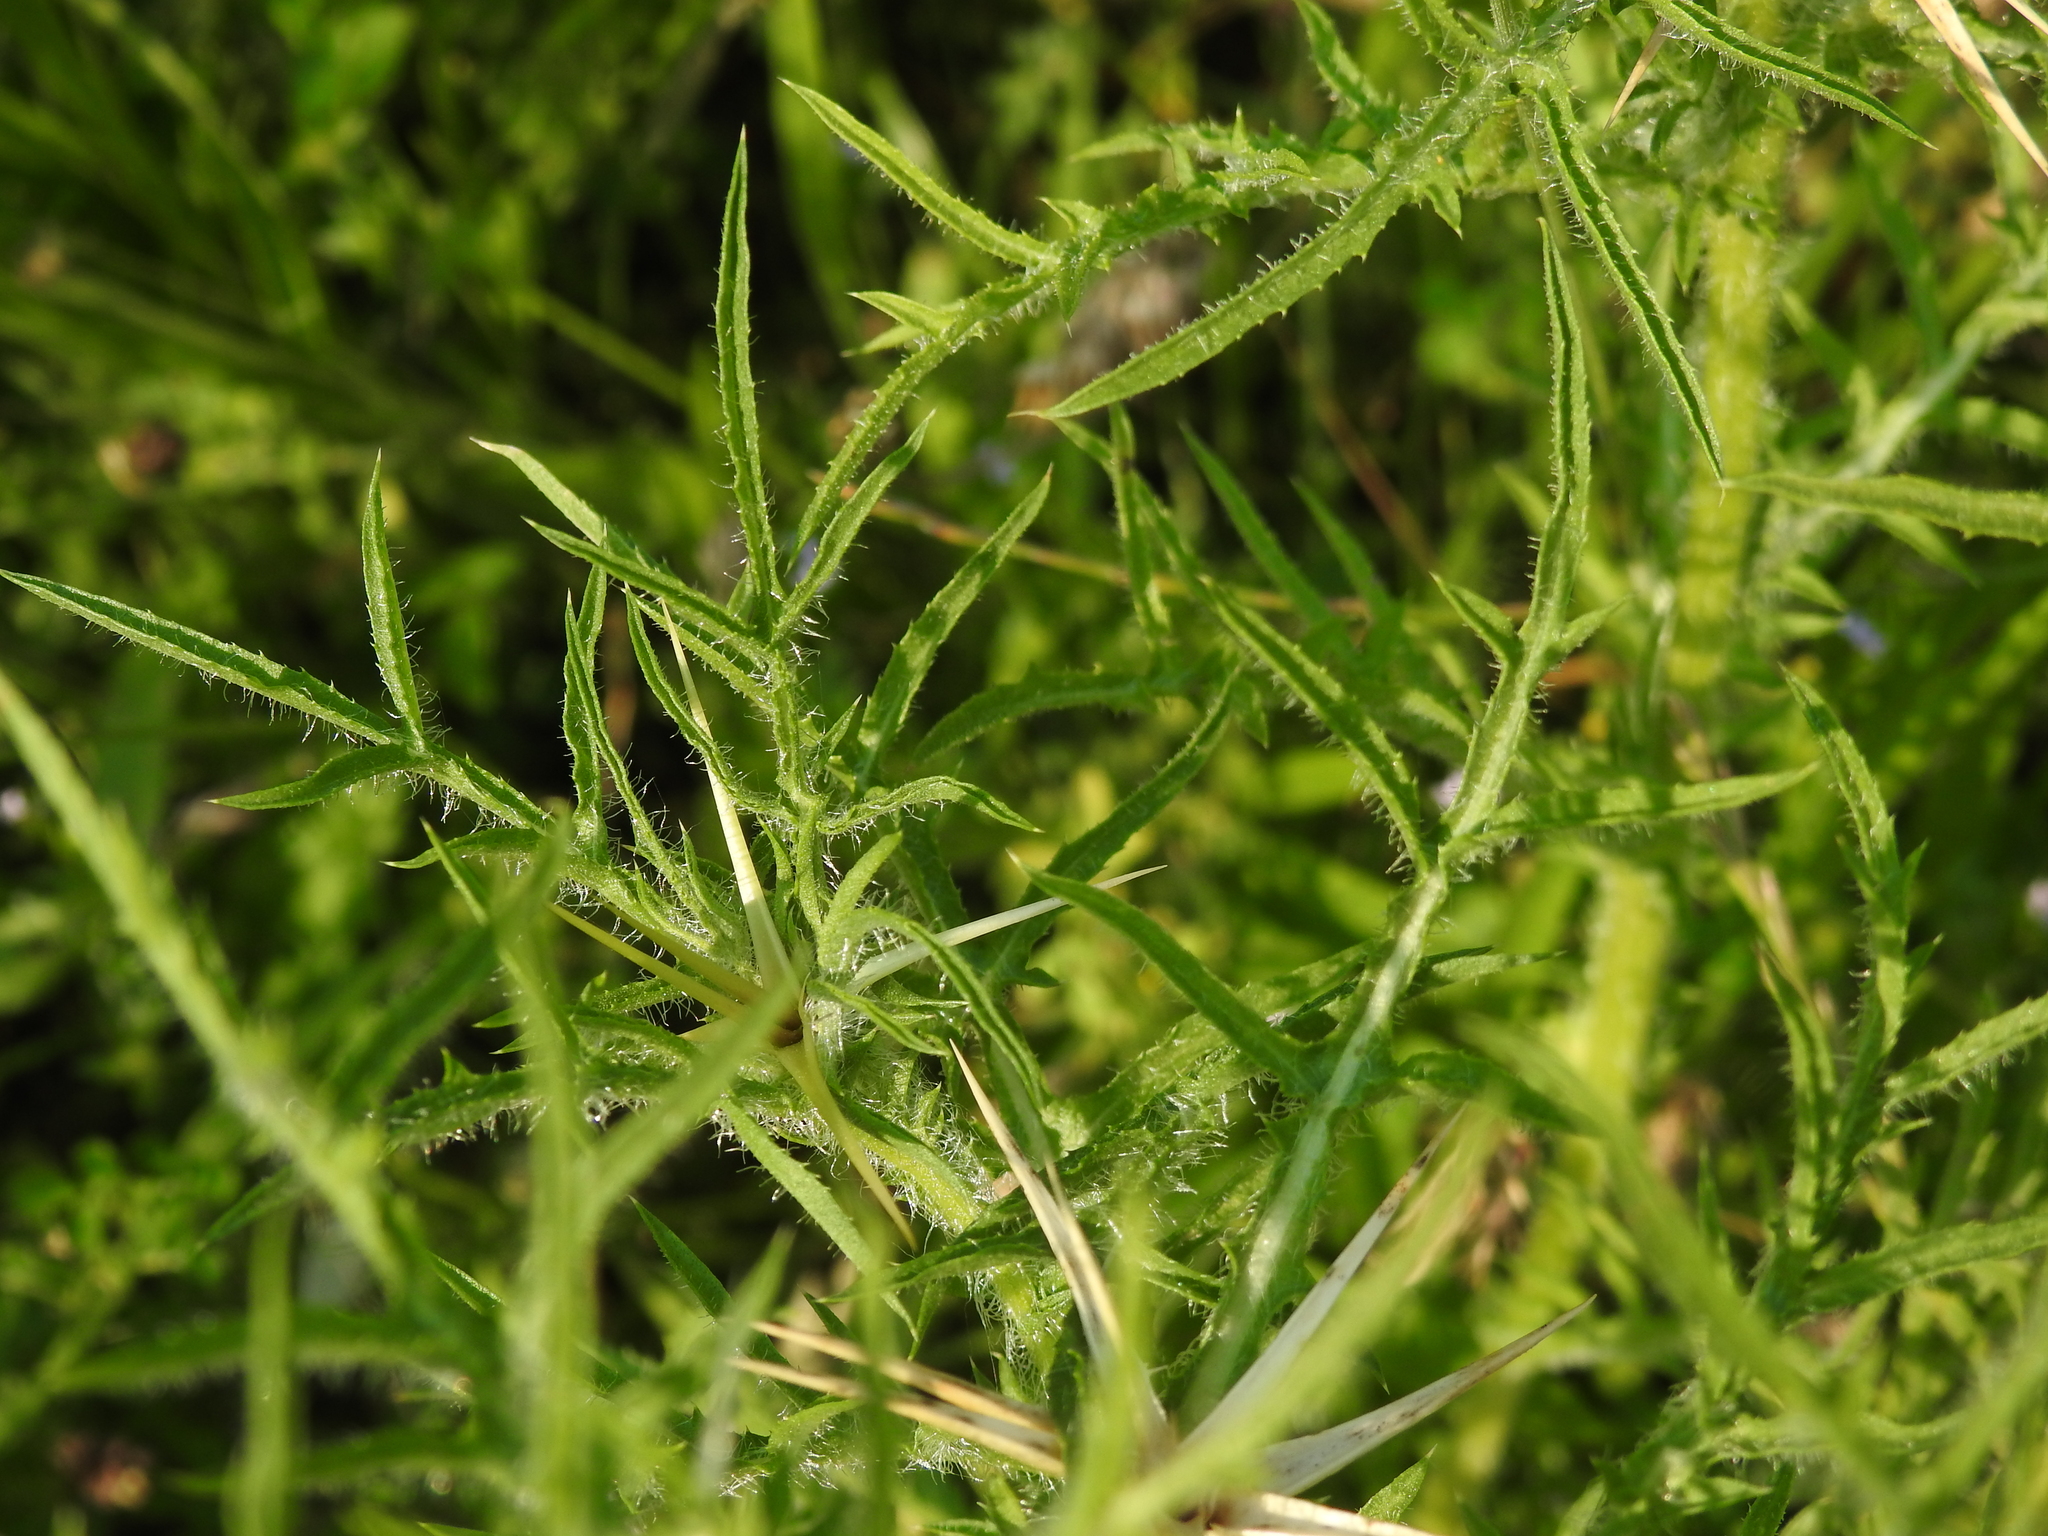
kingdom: Plantae
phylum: Tracheophyta
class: Magnoliopsida
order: Asterales
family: Asteraceae
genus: Centaurea
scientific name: Centaurea calcitrapa
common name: Red star-thistle
